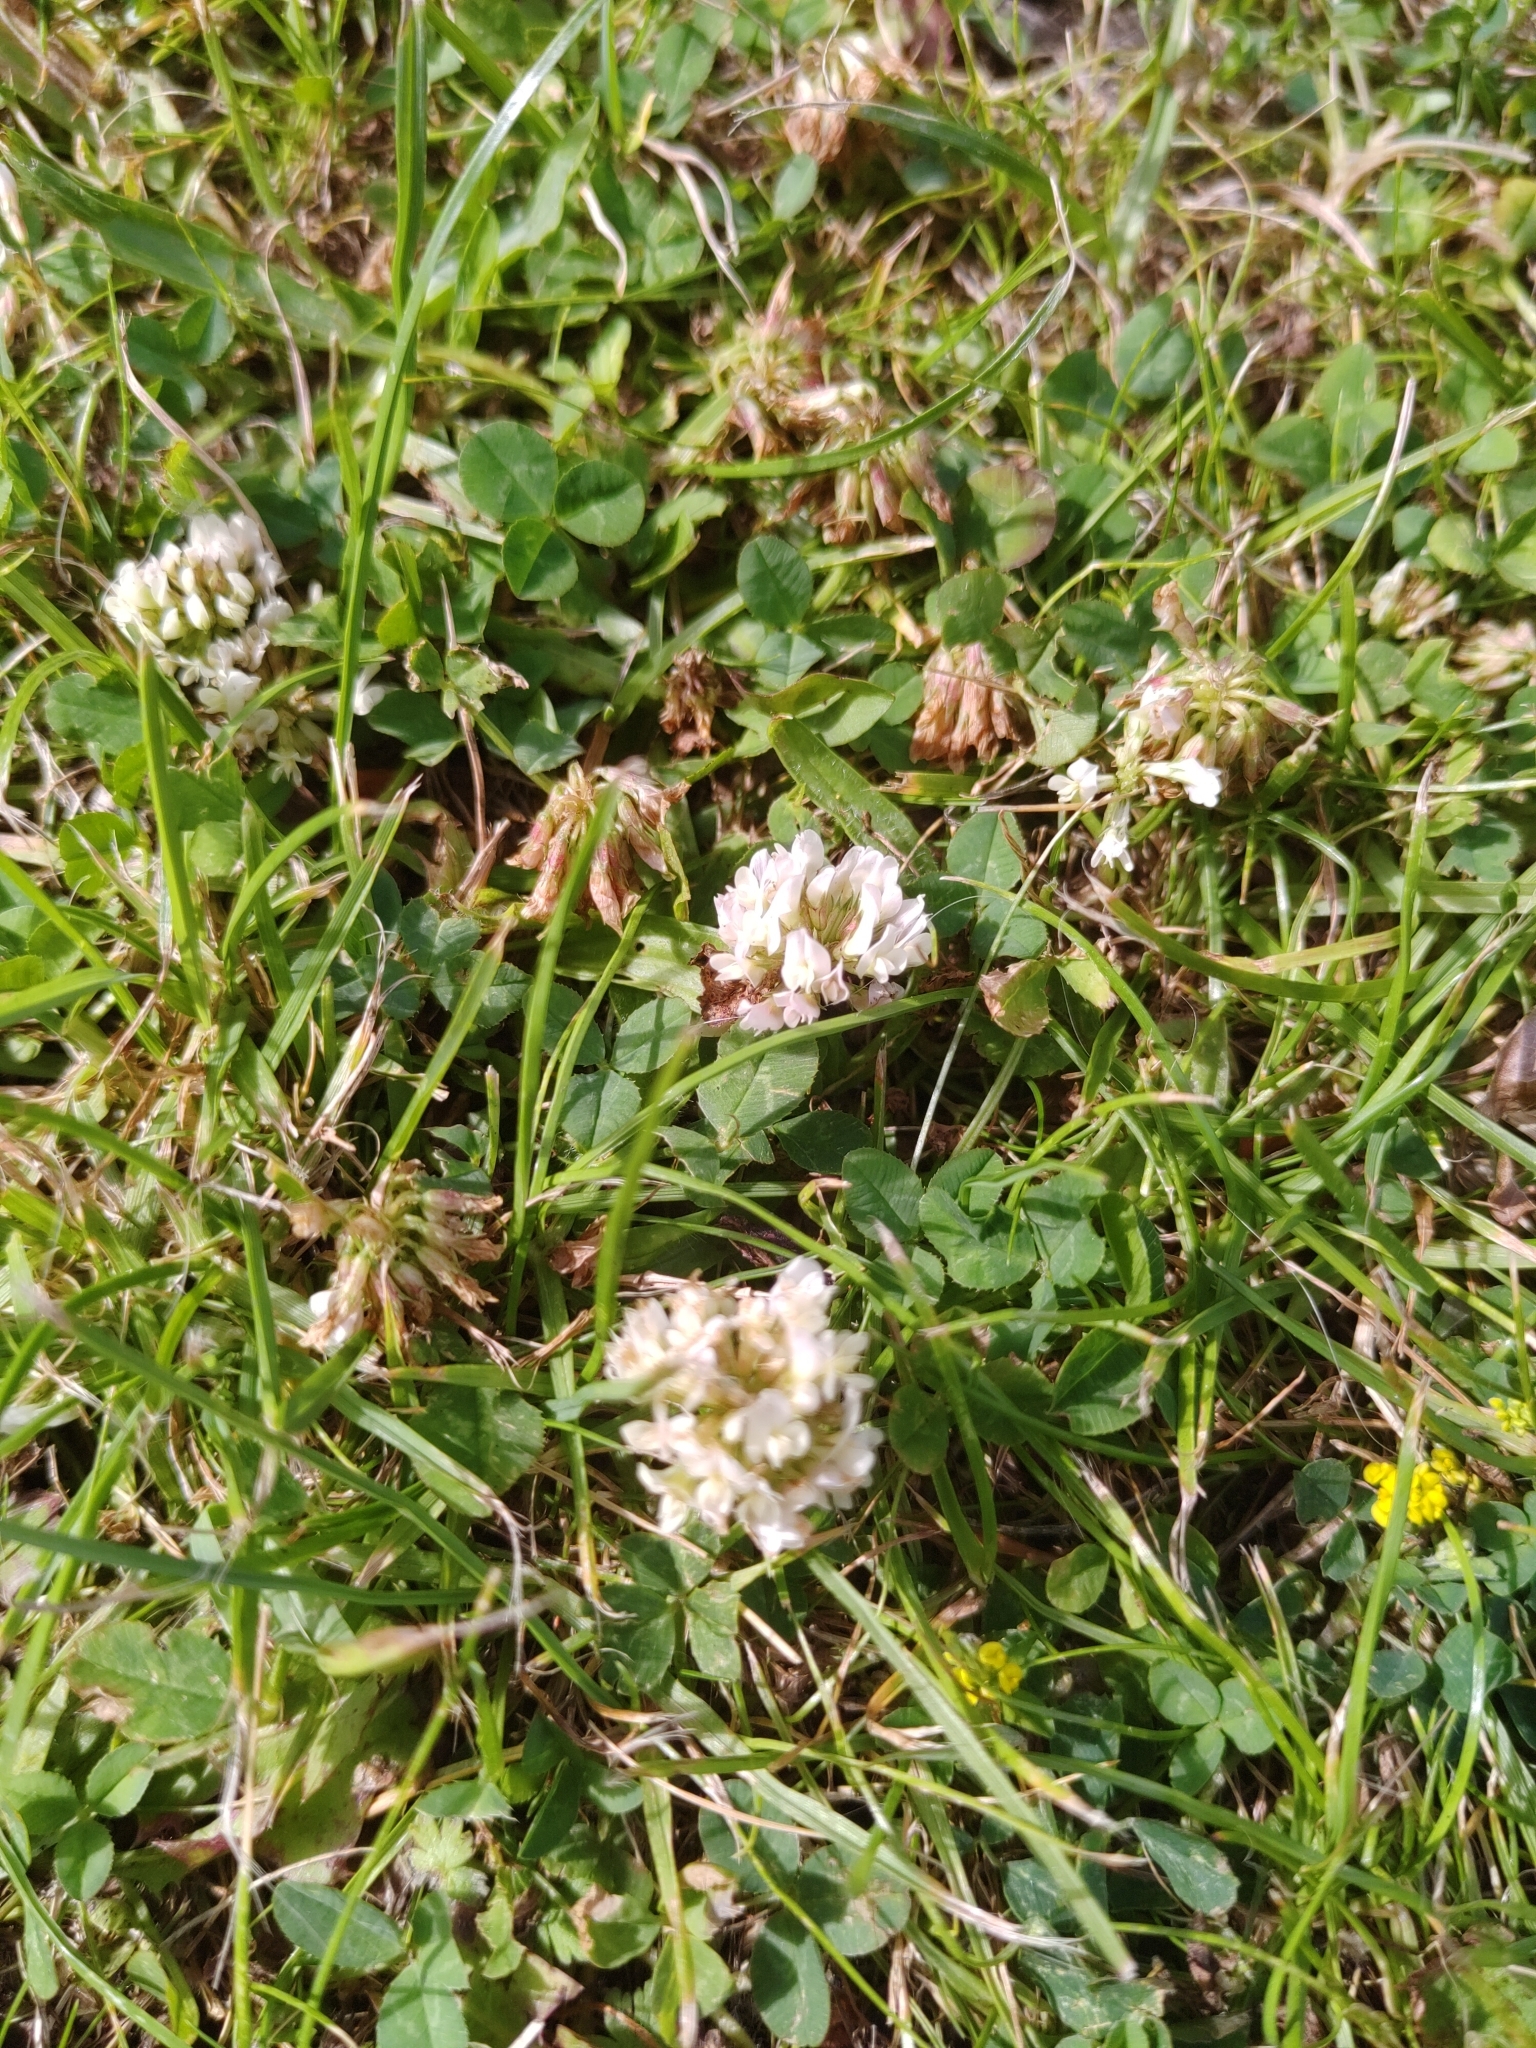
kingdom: Plantae
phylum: Tracheophyta
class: Magnoliopsida
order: Fabales
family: Fabaceae
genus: Trifolium
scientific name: Trifolium repens
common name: White clover
